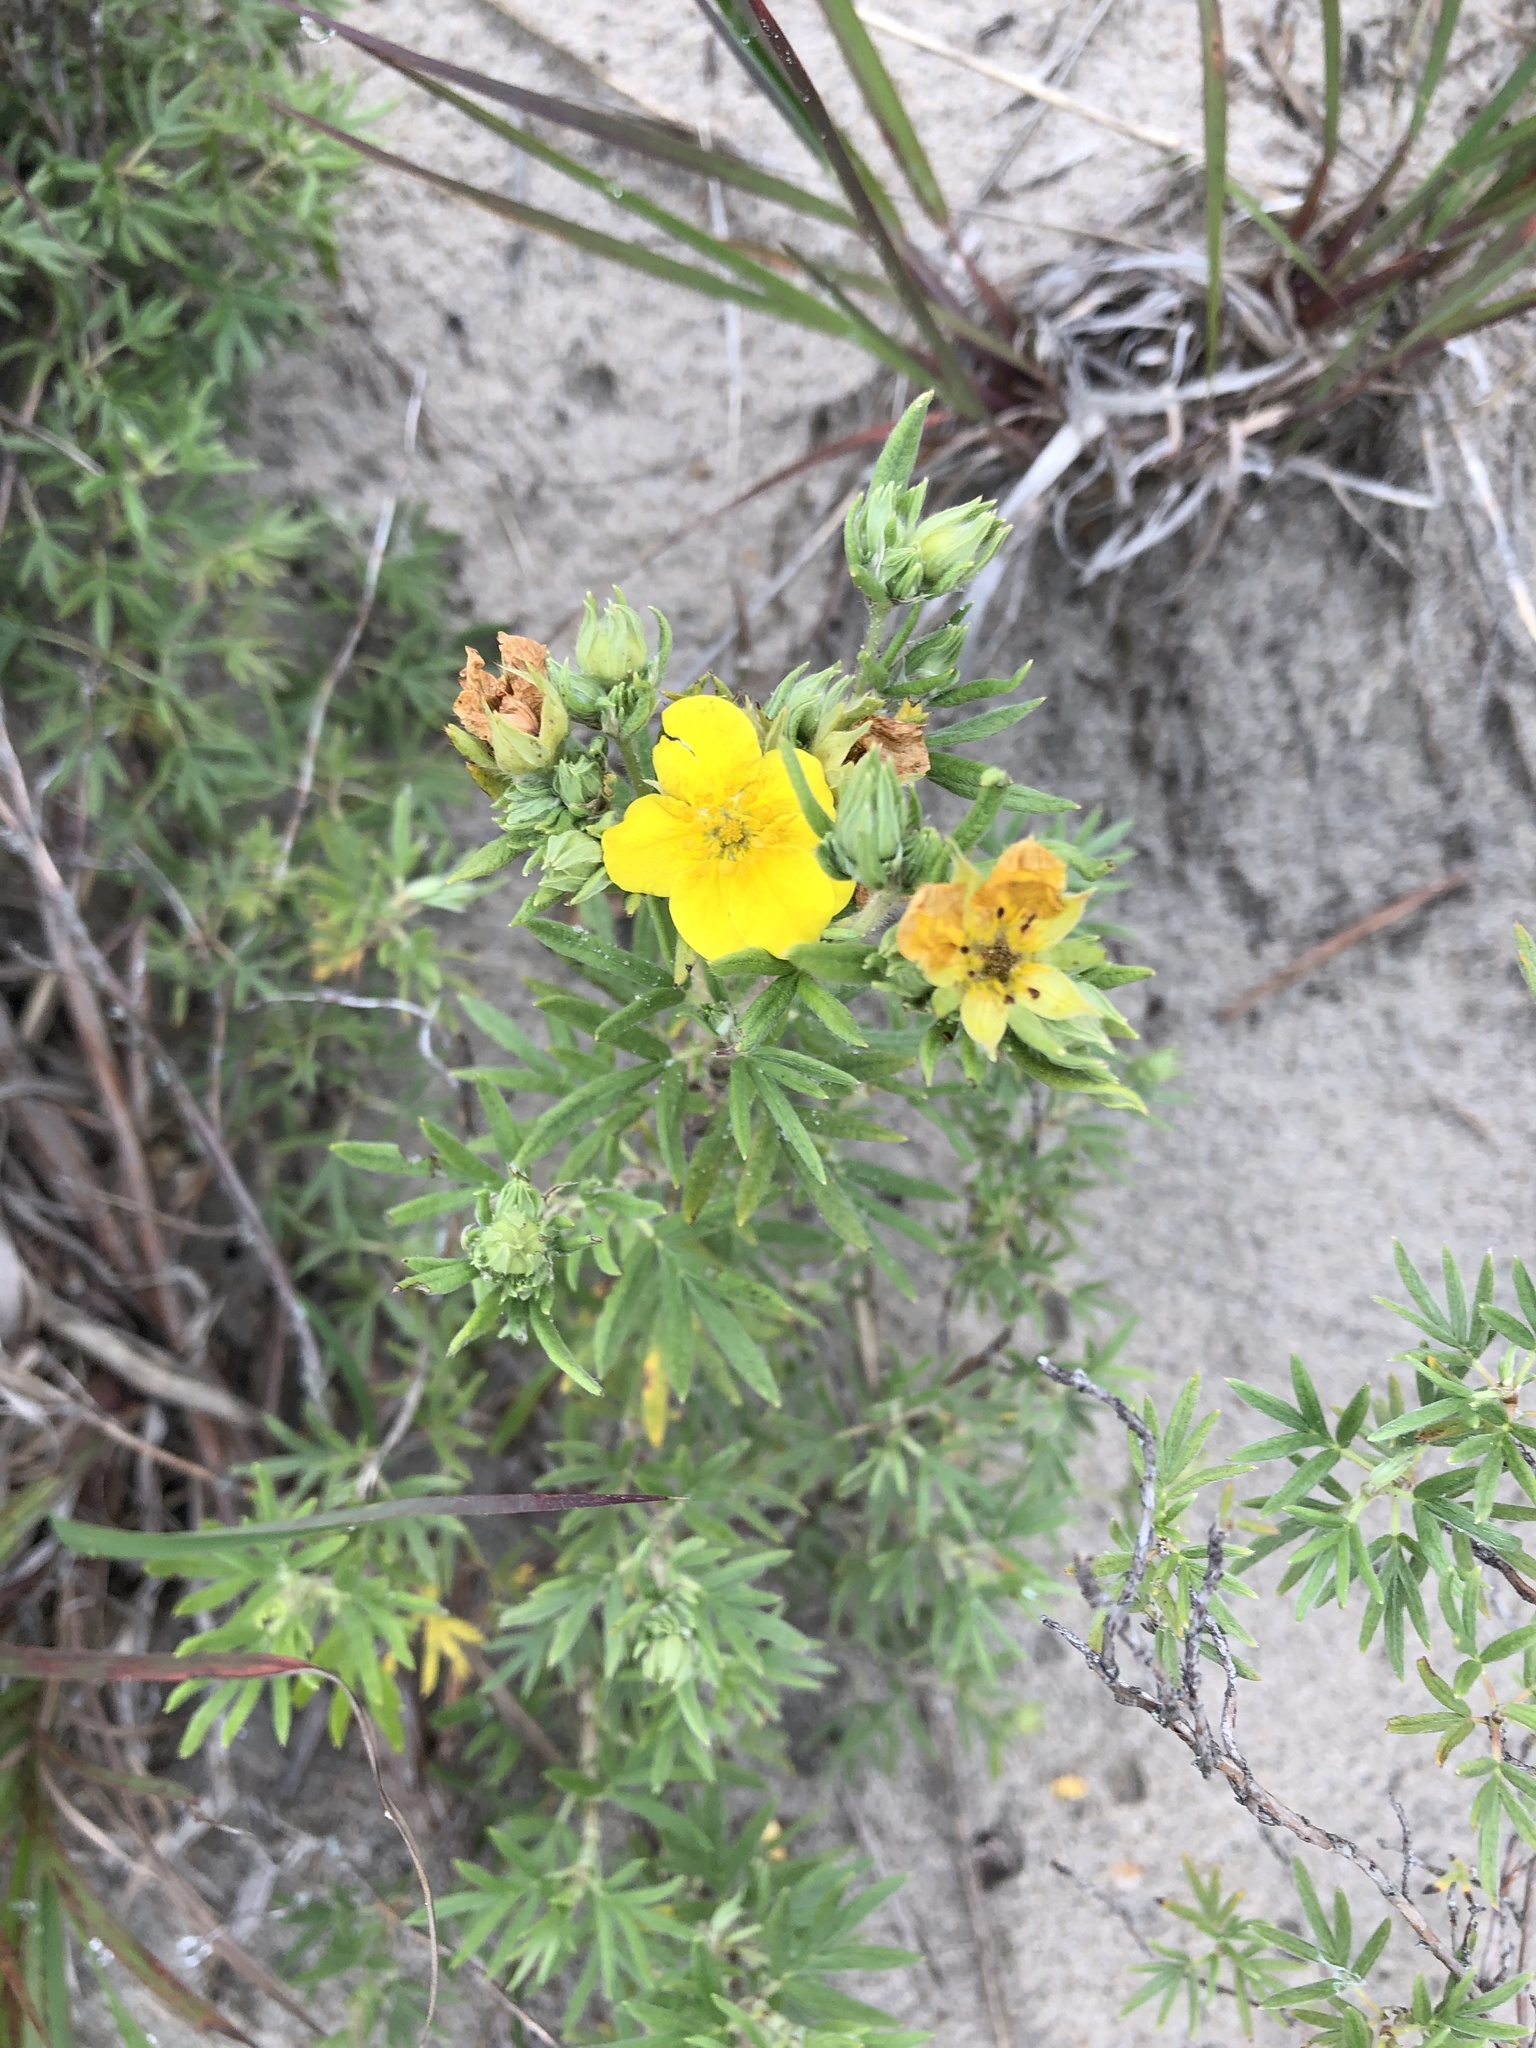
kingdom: Plantae
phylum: Tracheophyta
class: Magnoliopsida
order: Rosales
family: Rosaceae
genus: Dasiphora
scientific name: Dasiphora fruticosa
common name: Shrubby cinquefoil
